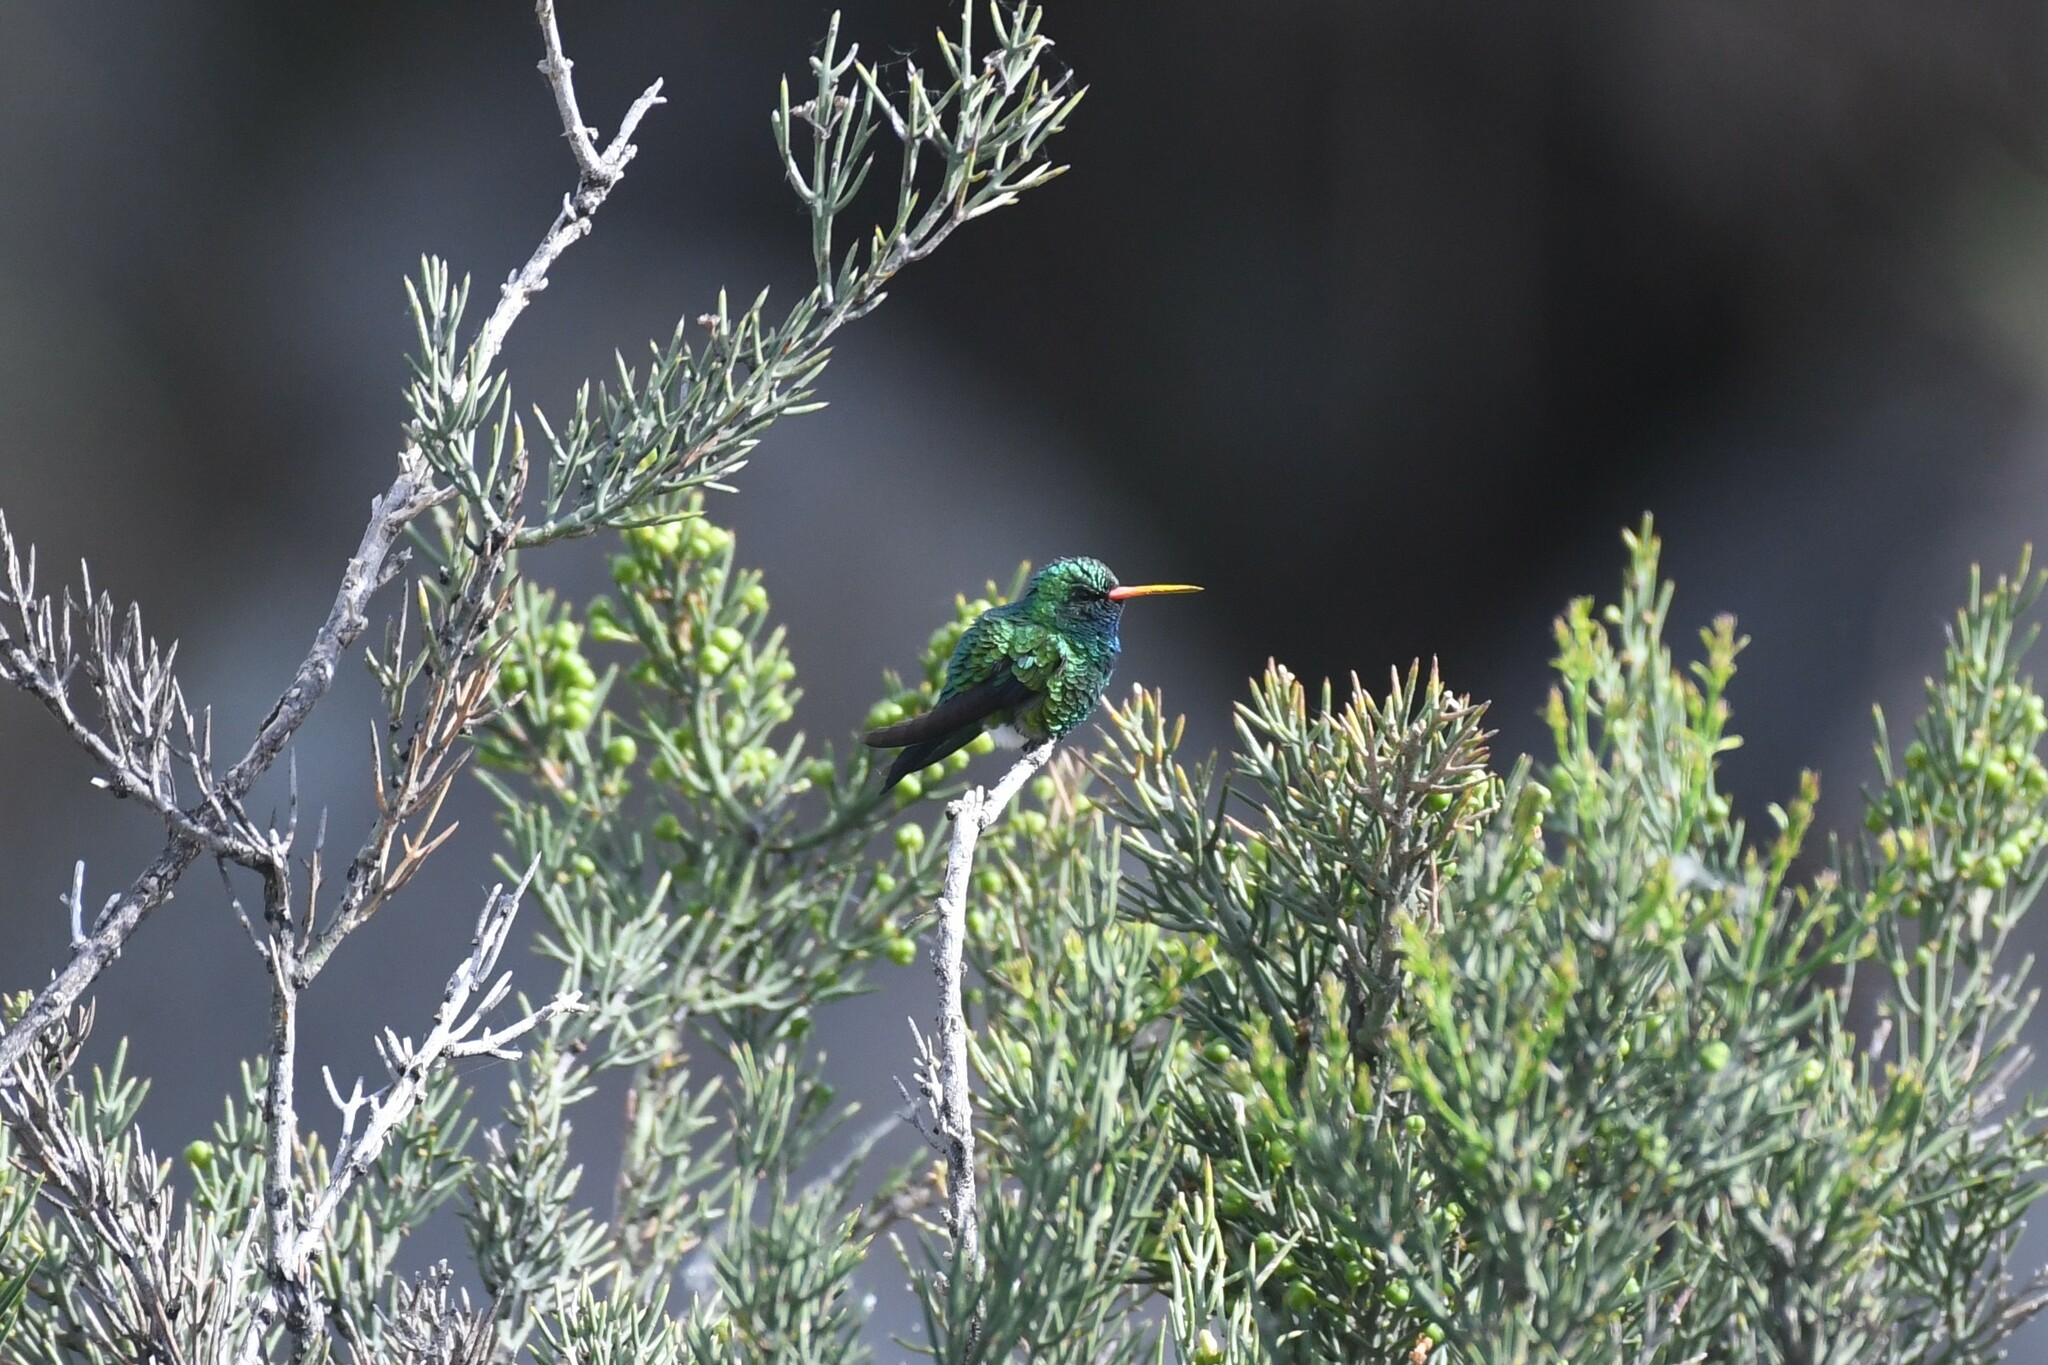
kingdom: Animalia
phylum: Chordata
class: Aves
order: Apodiformes
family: Trochilidae
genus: Chlorostilbon
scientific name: Chlorostilbon lucidus
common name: Glittering-bellied emerald
